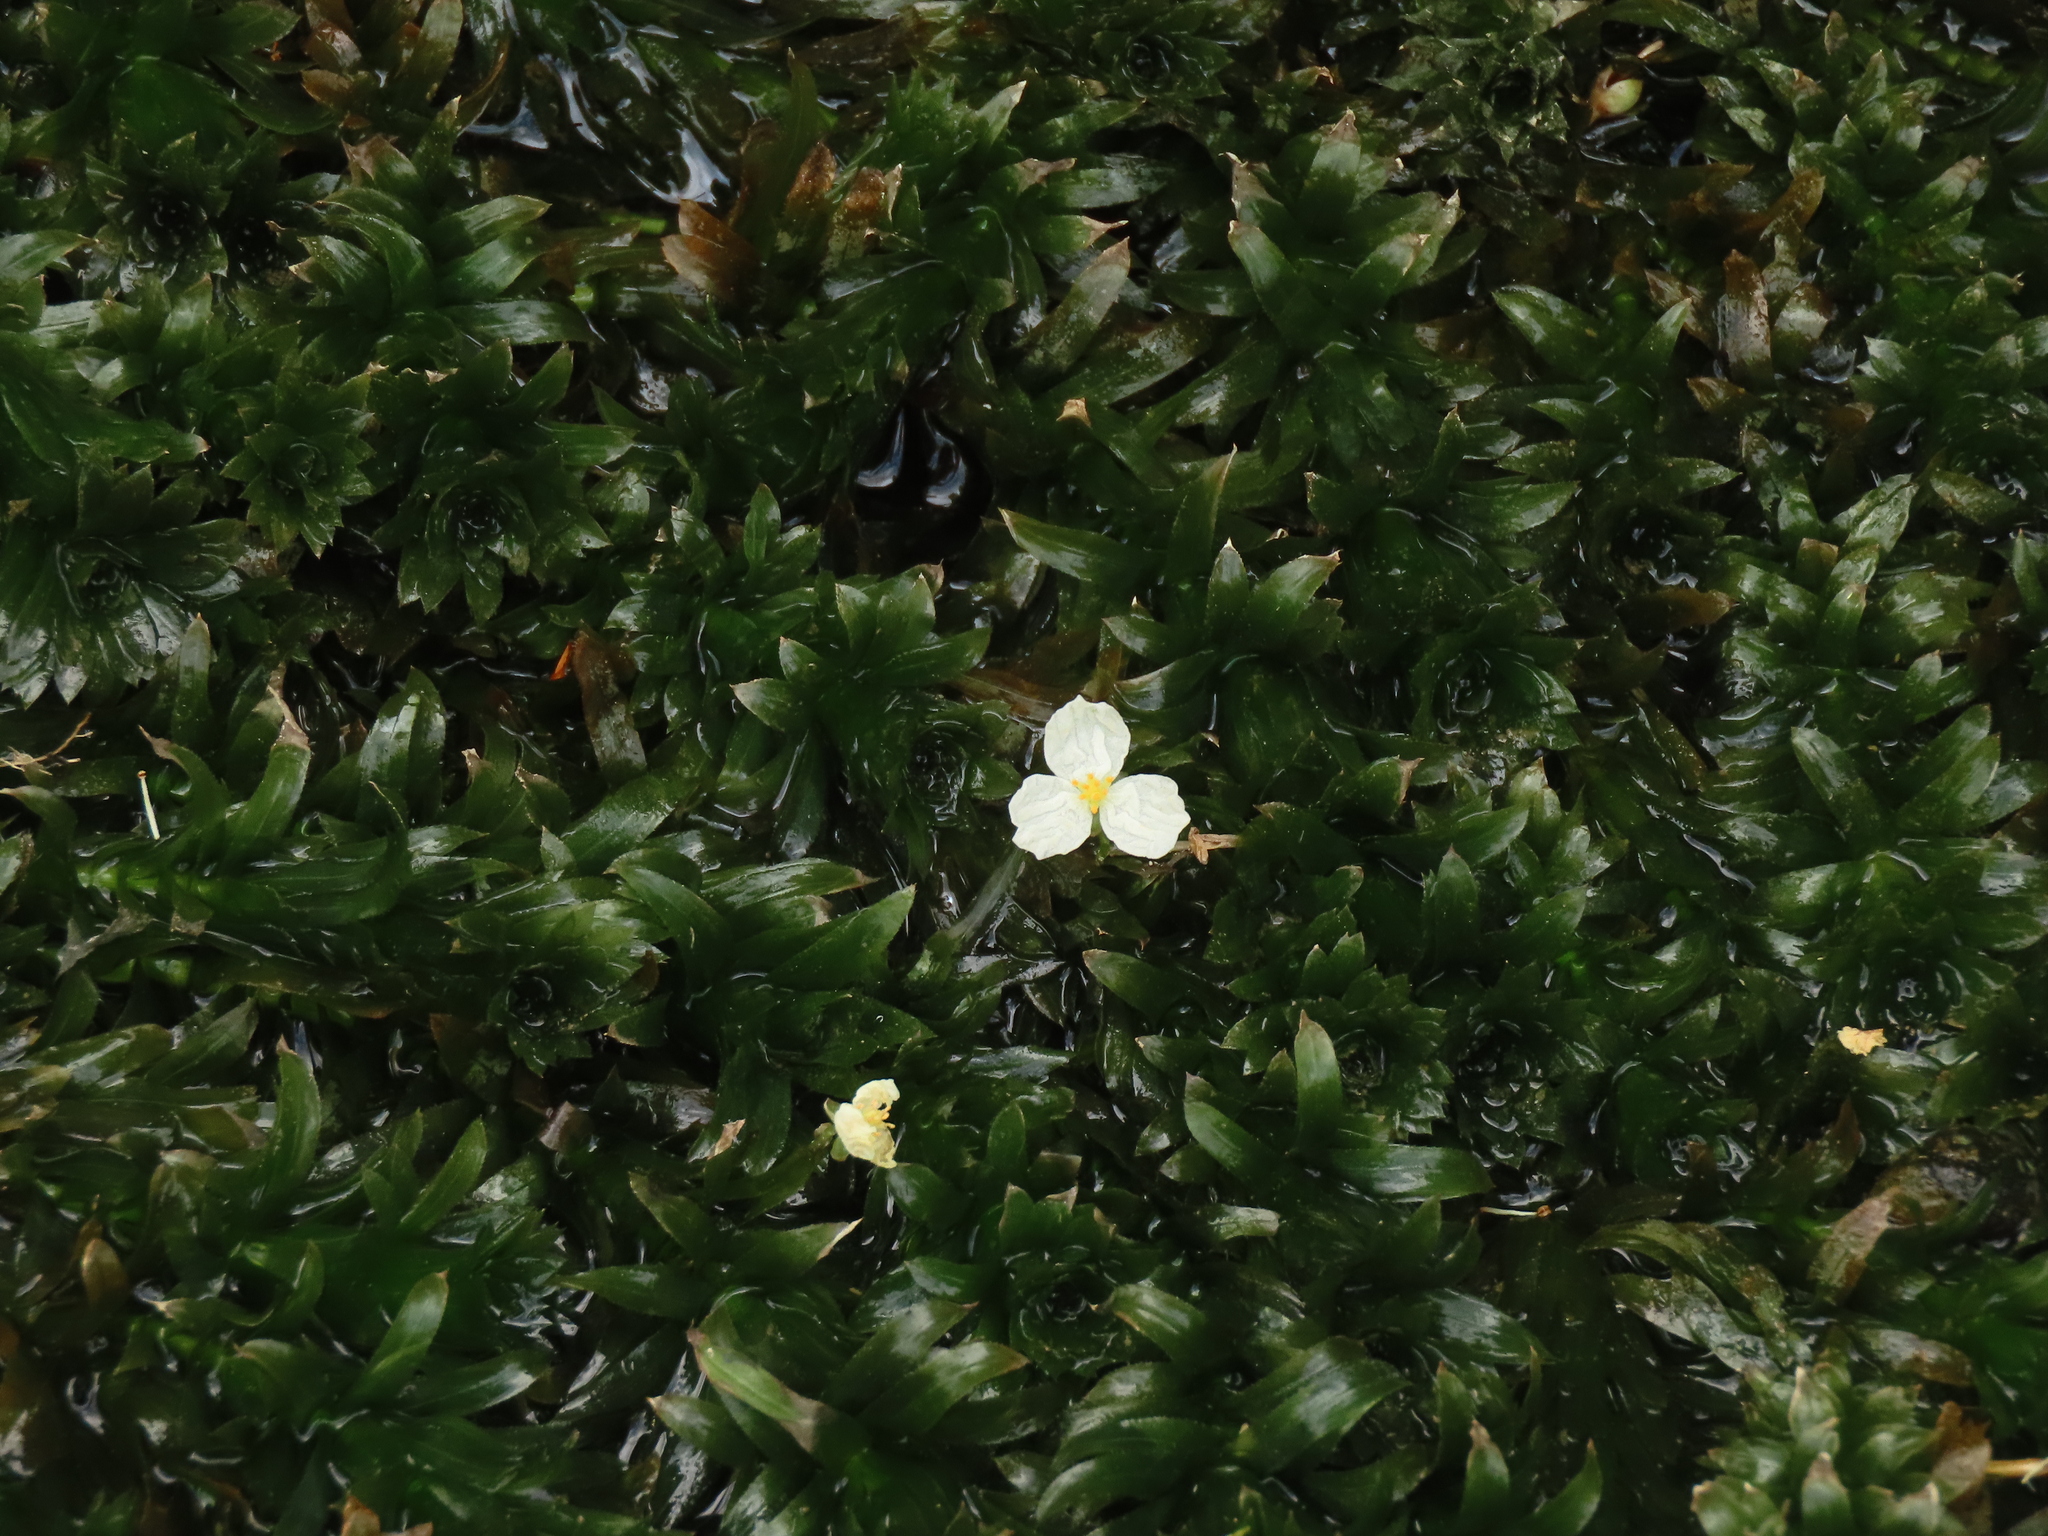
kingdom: Plantae
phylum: Tracheophyta
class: Liliopsida
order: Alismatales
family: Hydrocharitaceae
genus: Elodea
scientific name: Elodea densa
